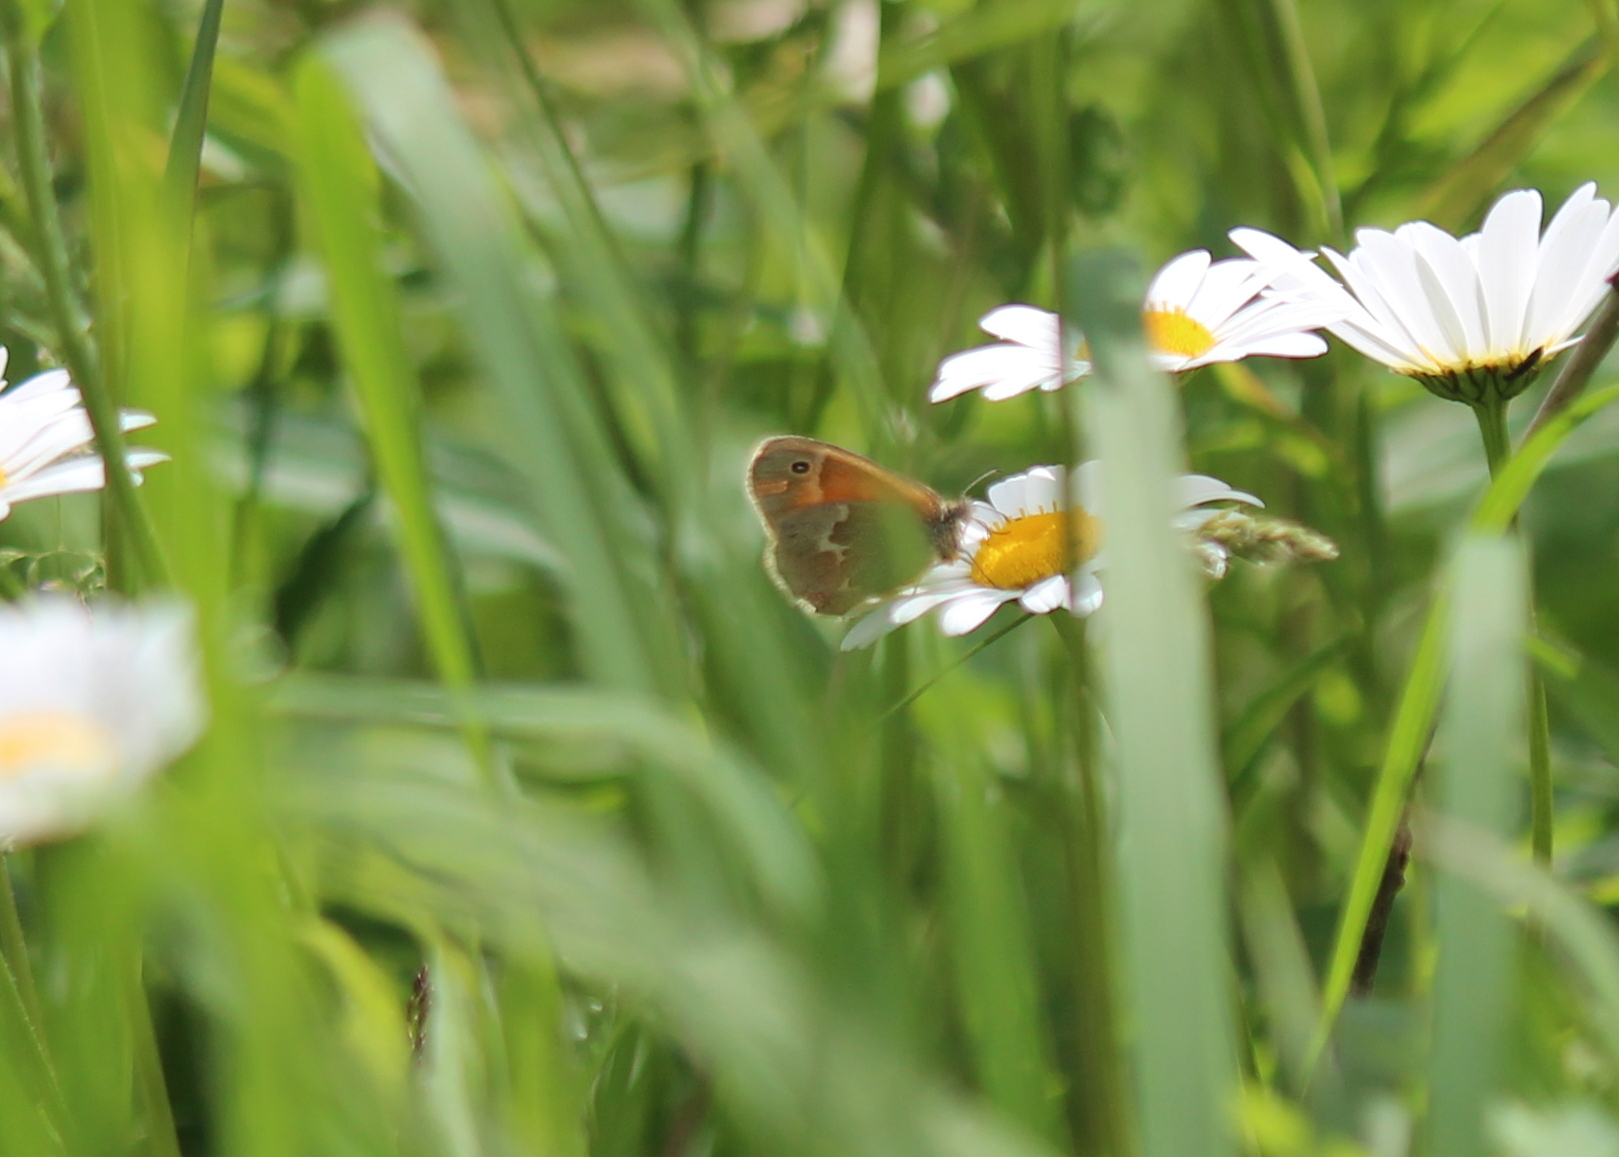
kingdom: Animalia
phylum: Arthropoda
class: Insecta
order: Lepidoptera
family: Nymphalidae
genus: Coenonympha
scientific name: Coenonympha california
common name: Common ringlet
